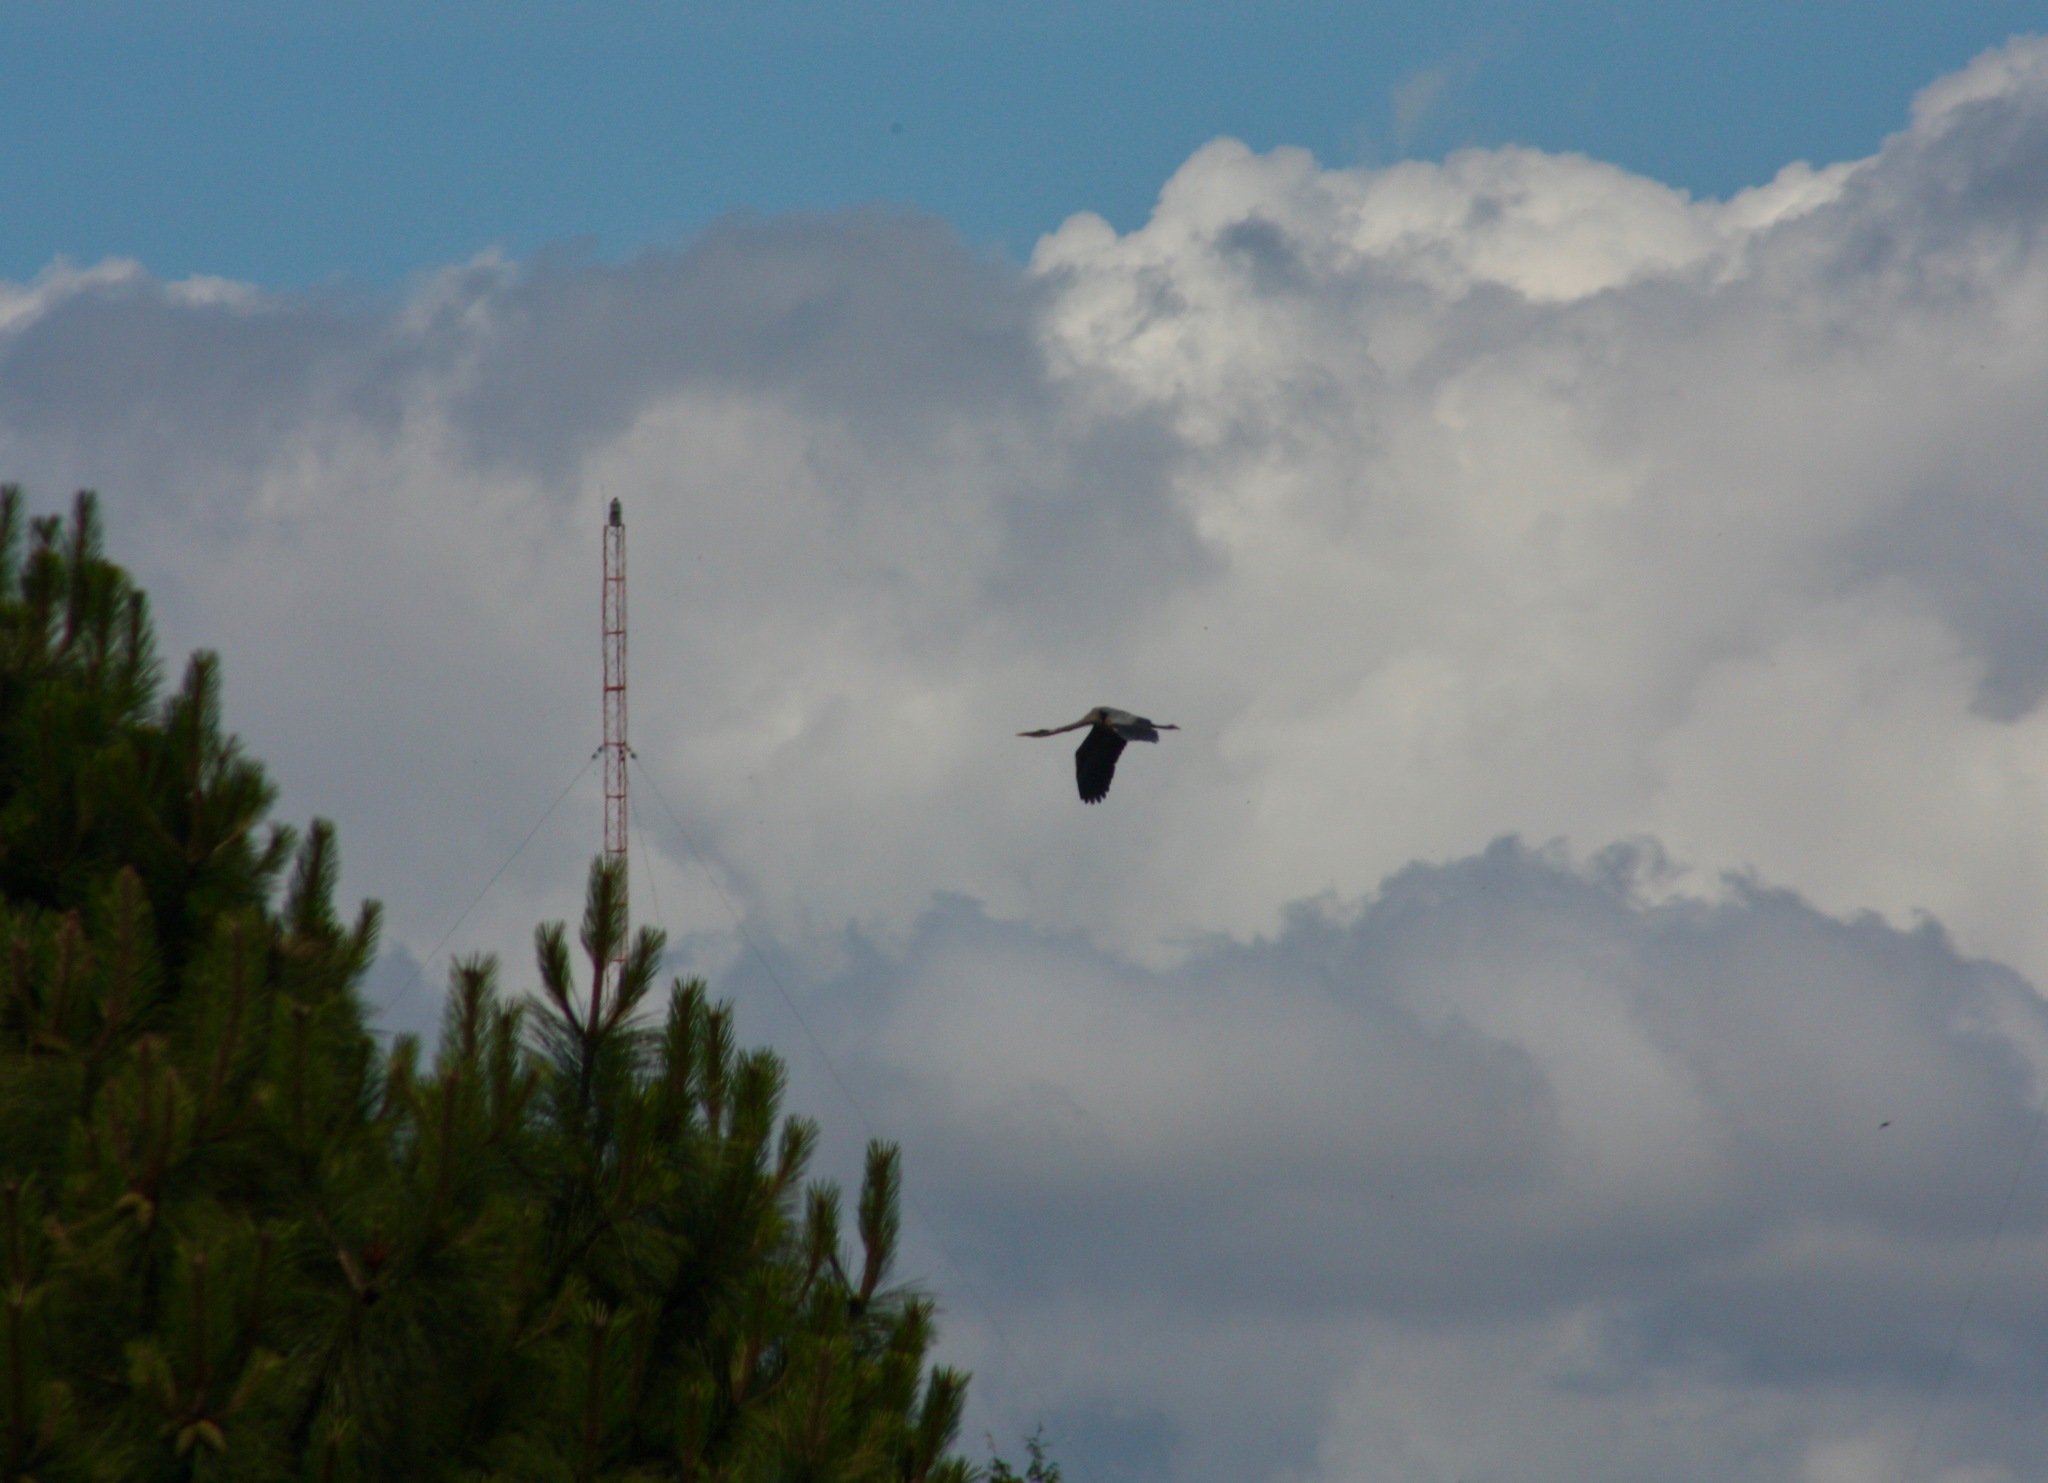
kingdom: Animalia
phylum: Chordata
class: Aves
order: Pelecaniformes
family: Ardeidae
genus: Ardea
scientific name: Ardea herodias
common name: Great blue heron
